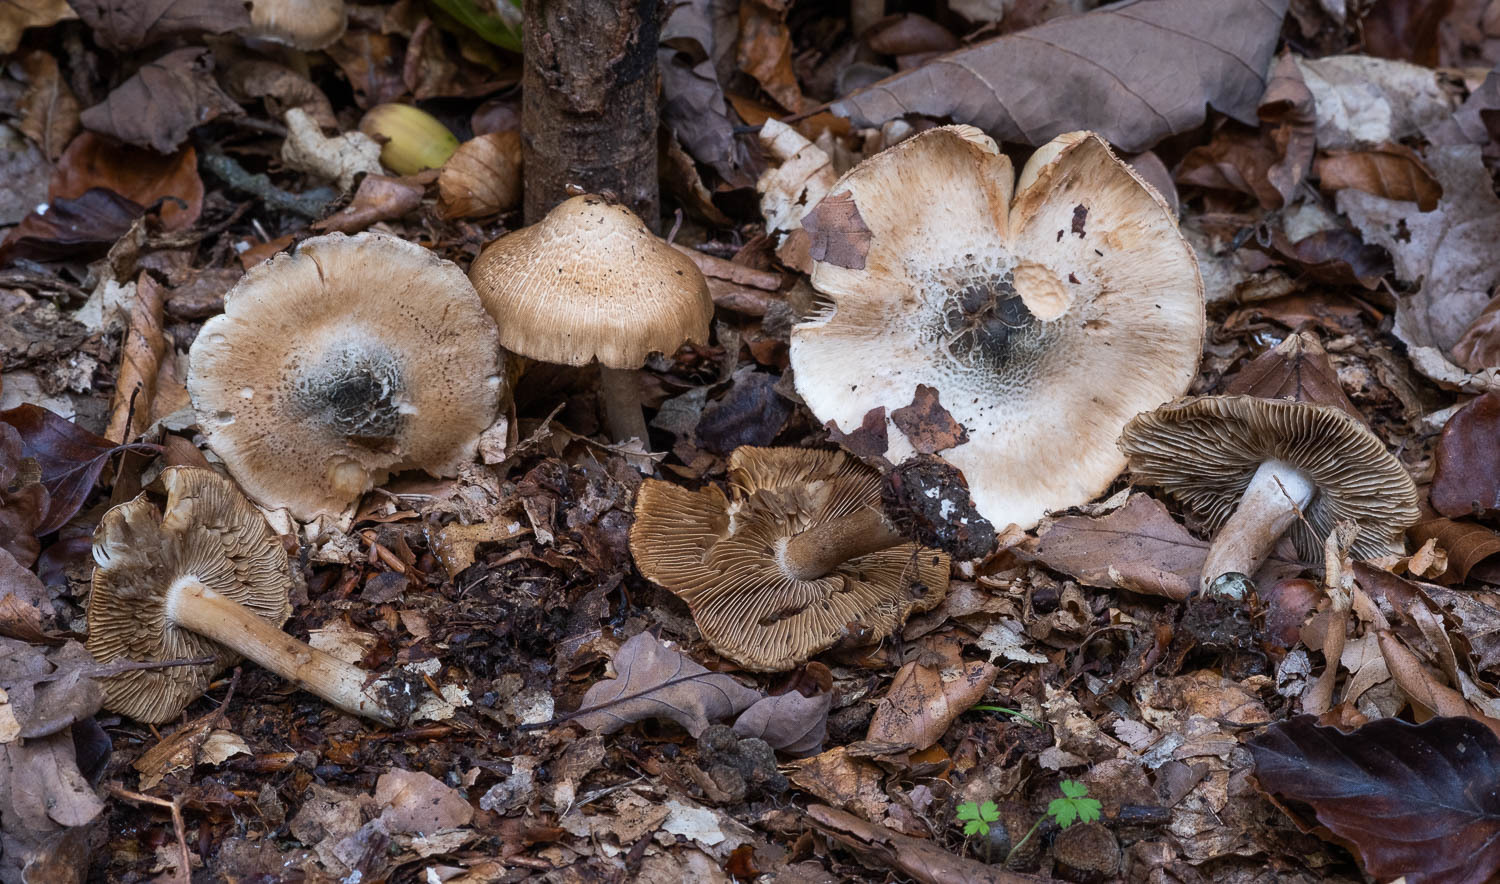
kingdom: Fungi
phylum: Basidiomycota
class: Agaricomycetes
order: Agaricales
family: Inocybaceae
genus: Inocybe
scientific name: Inocybe corydalina
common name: Greenflush fibrecap
